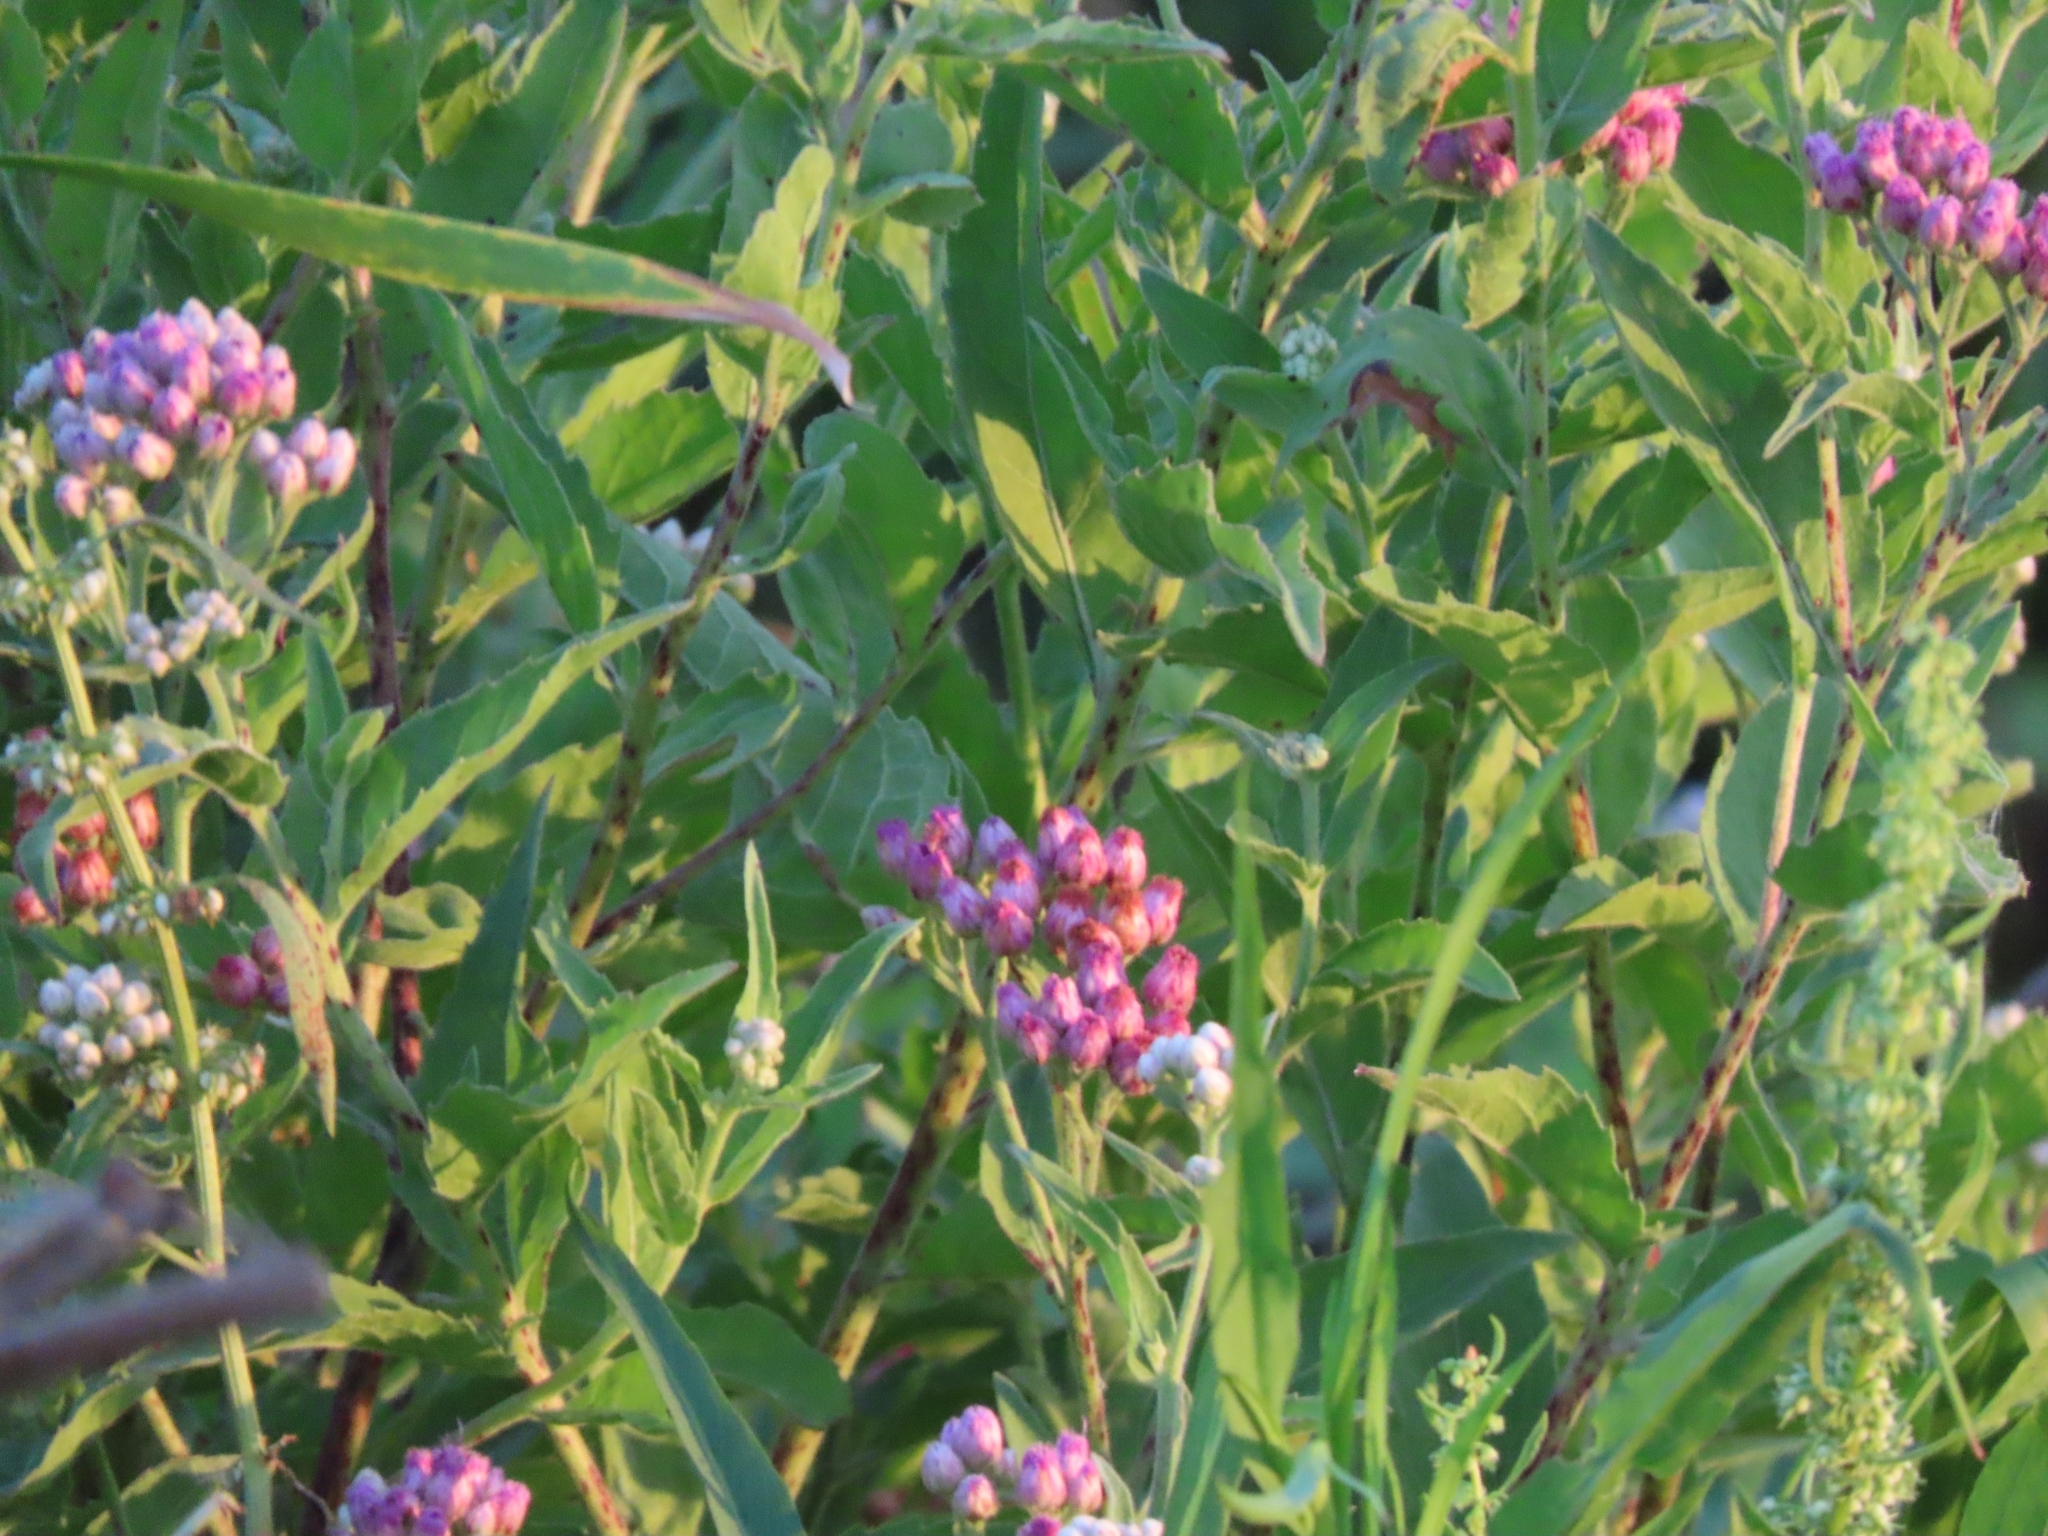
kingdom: Plantae
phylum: Tracheophyta
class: Magnoliopsida
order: Asterales
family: Asteraceae
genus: Pluchea
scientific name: Pluchea odorata
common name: Saltmarsh fleabane
